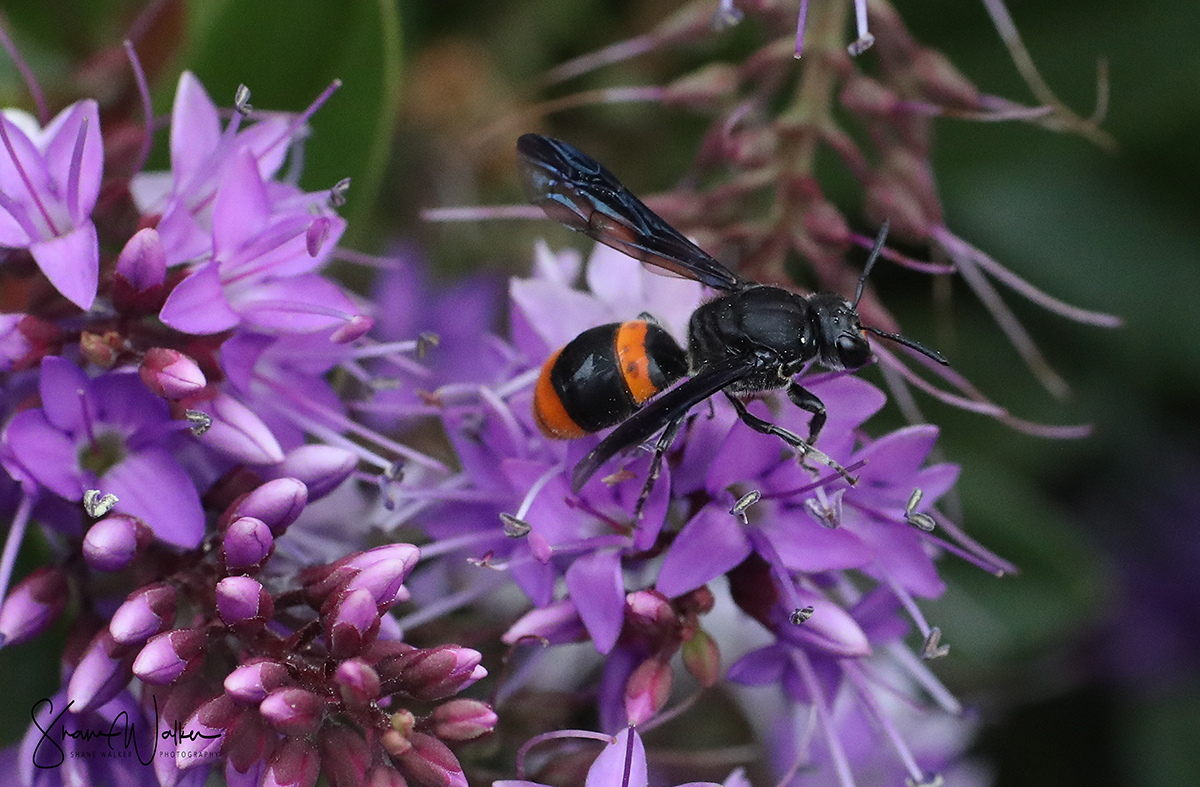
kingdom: Animalia
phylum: Arthropoda
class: Insecta
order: Hymenoptera
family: Colletidae
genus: Hyleoides
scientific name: Hyleoides concinna
